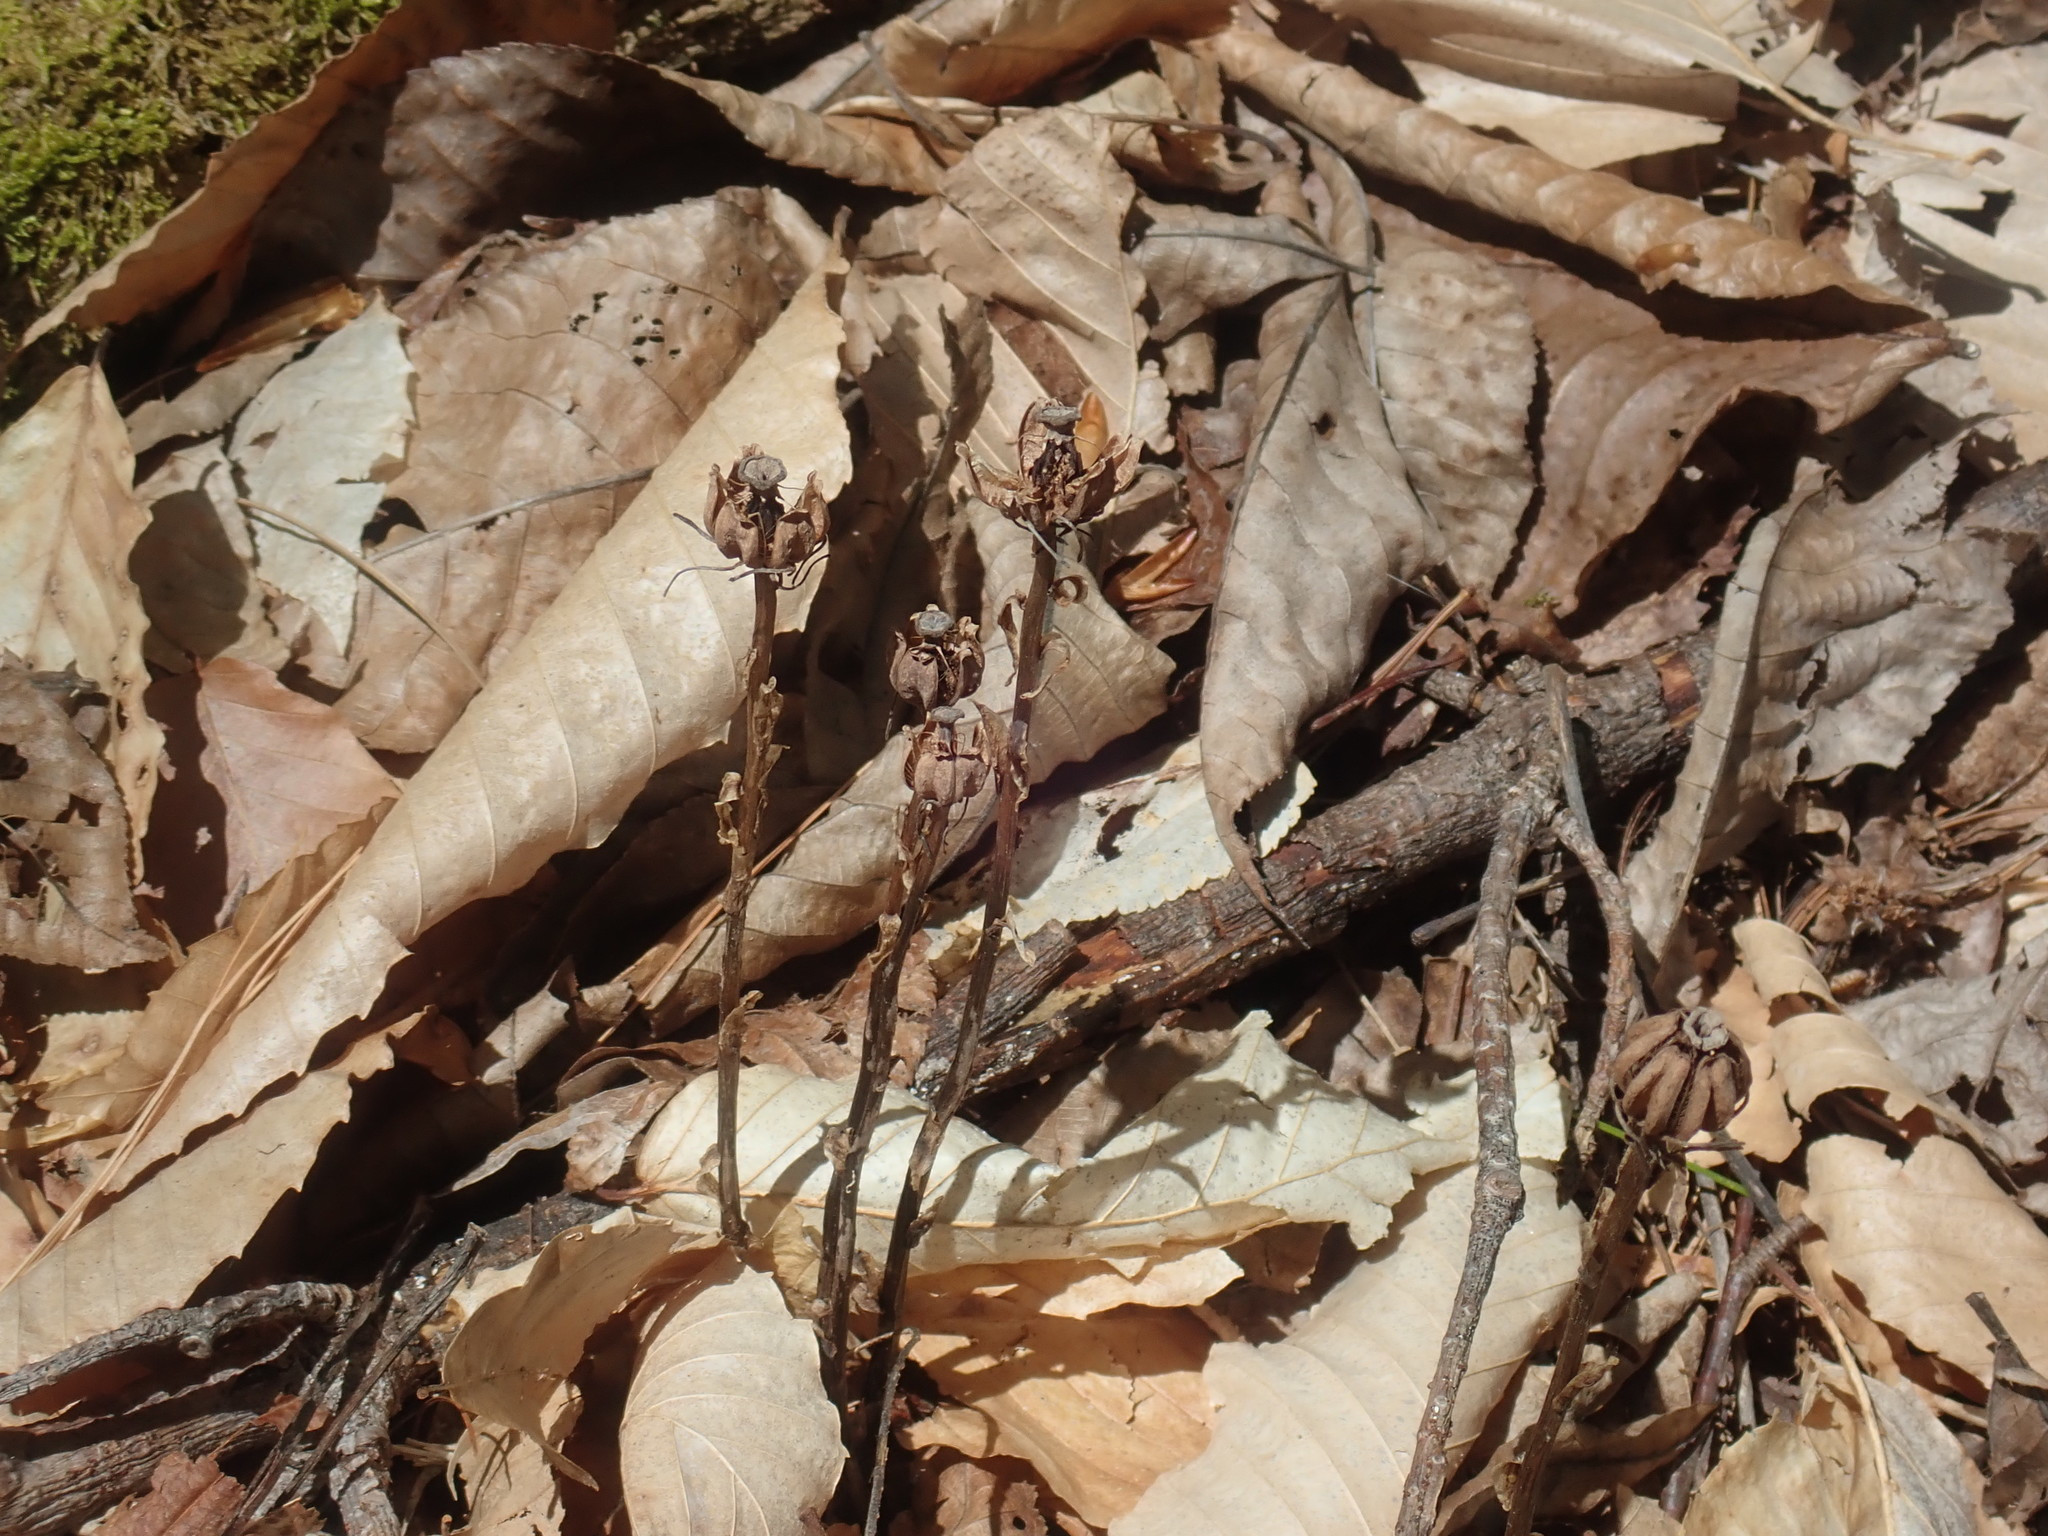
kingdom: Plantae
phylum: Tracheophyta
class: Magnoliopsida
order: Ericales
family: Ericaceae
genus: Monotropa
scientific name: Monotropa uniflora
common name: Convulsion root
